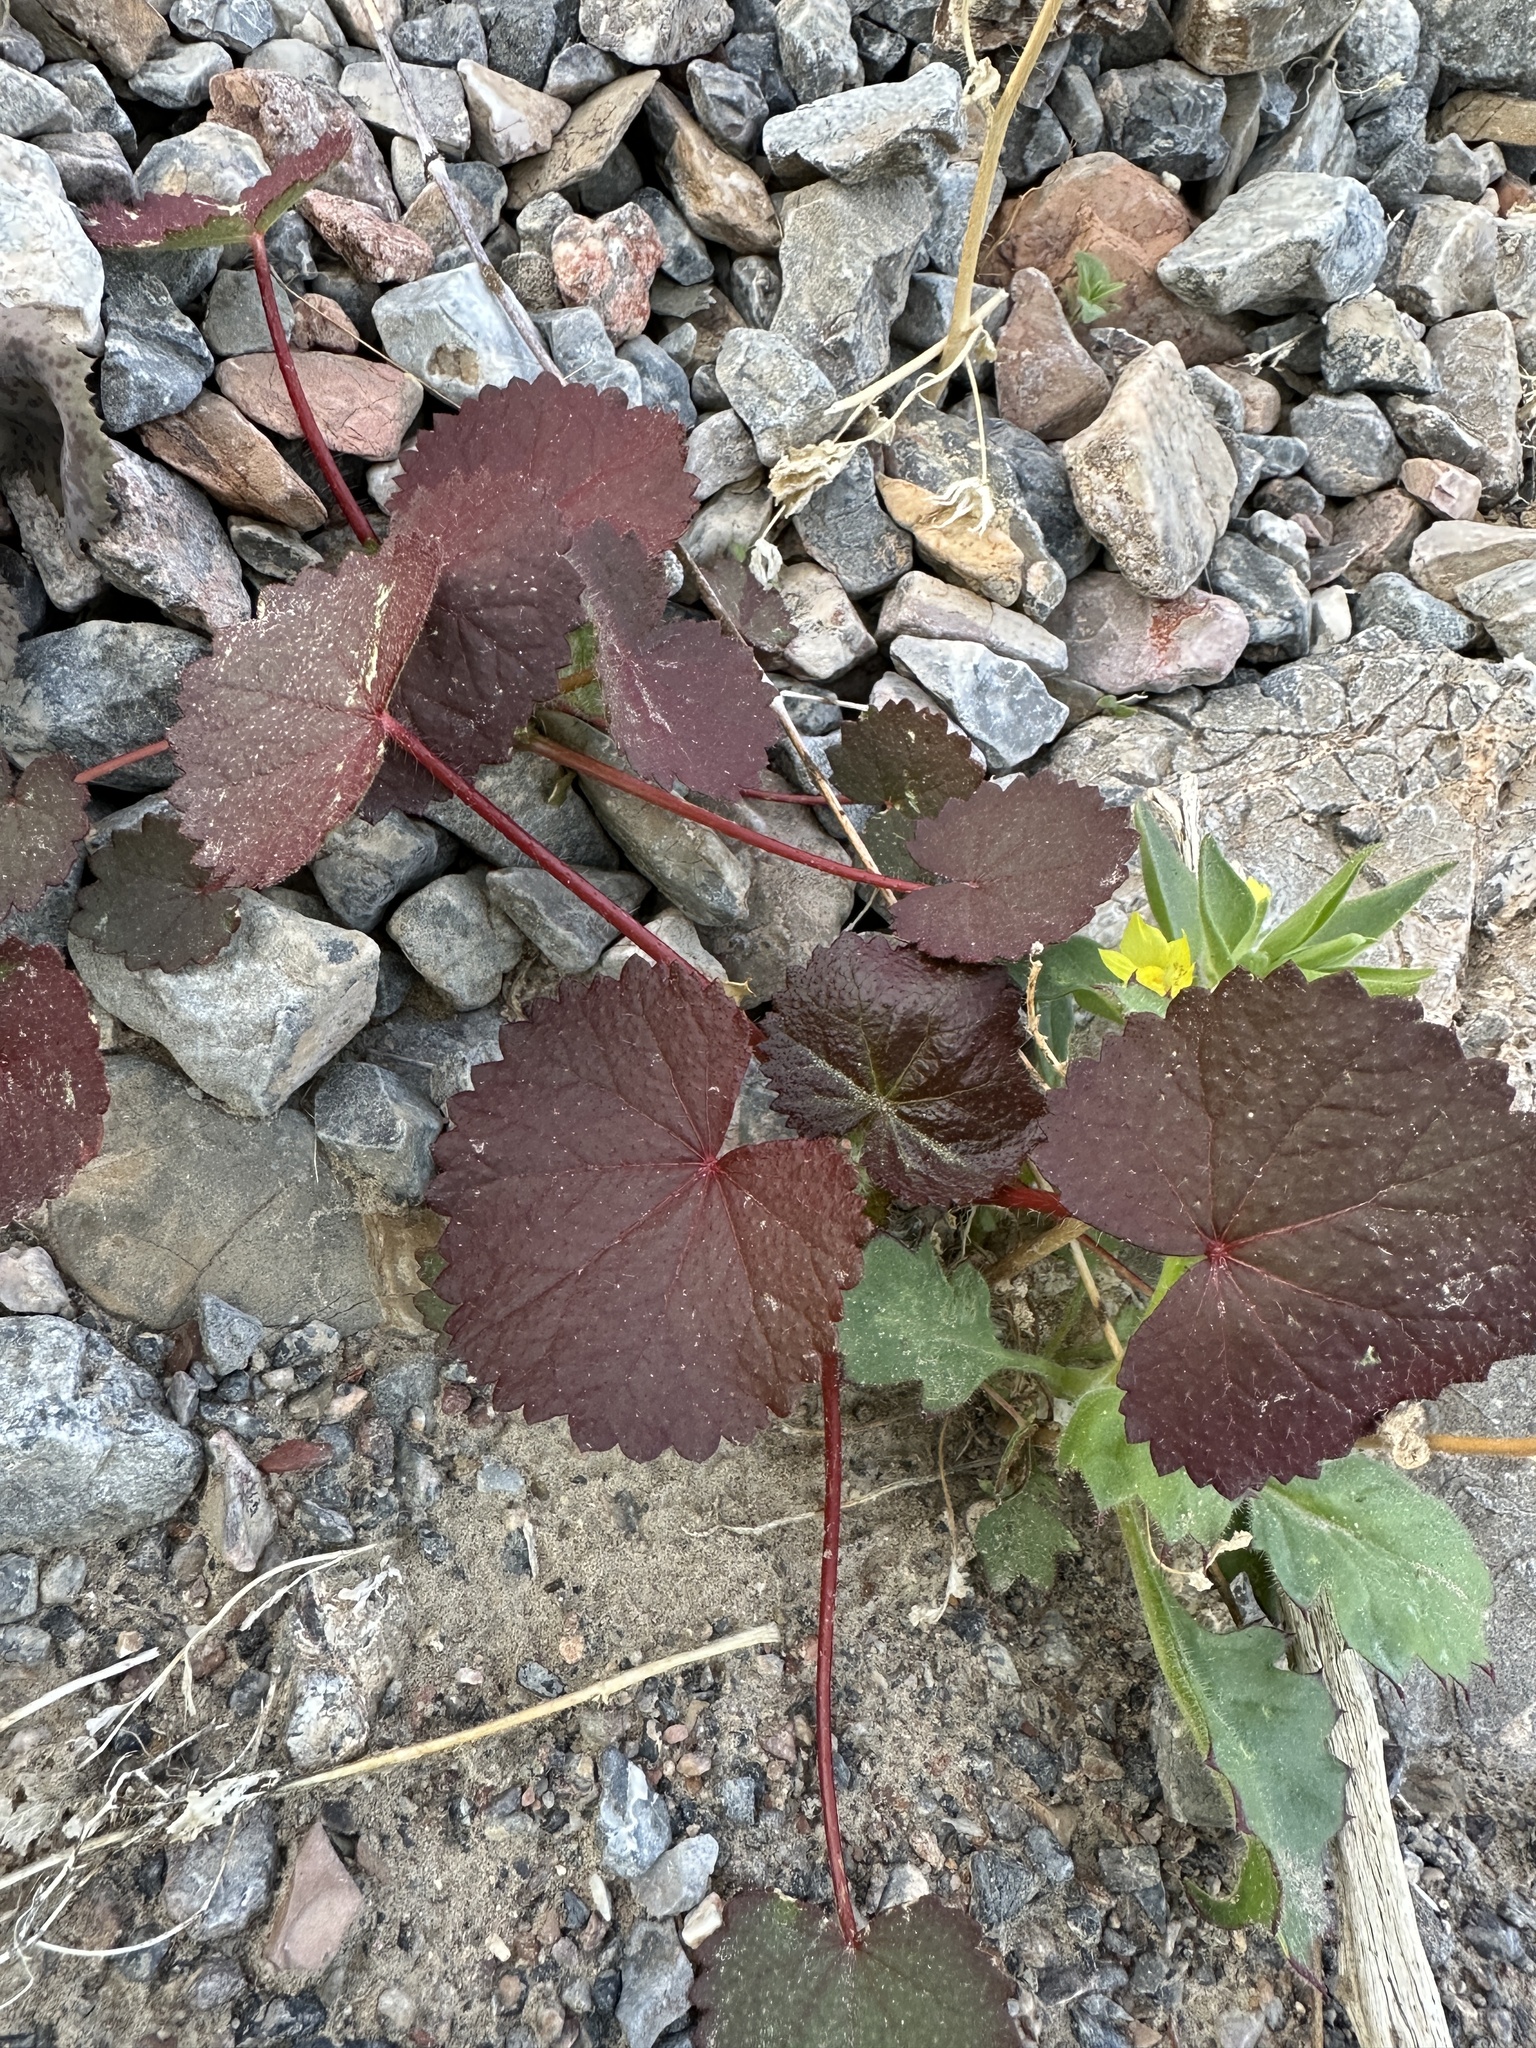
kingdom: Plantae
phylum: Tracheophyta
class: Magnoliopsida
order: Malvales
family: Malvaceae
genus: Eremalche
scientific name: Eremalche rotundifolia
